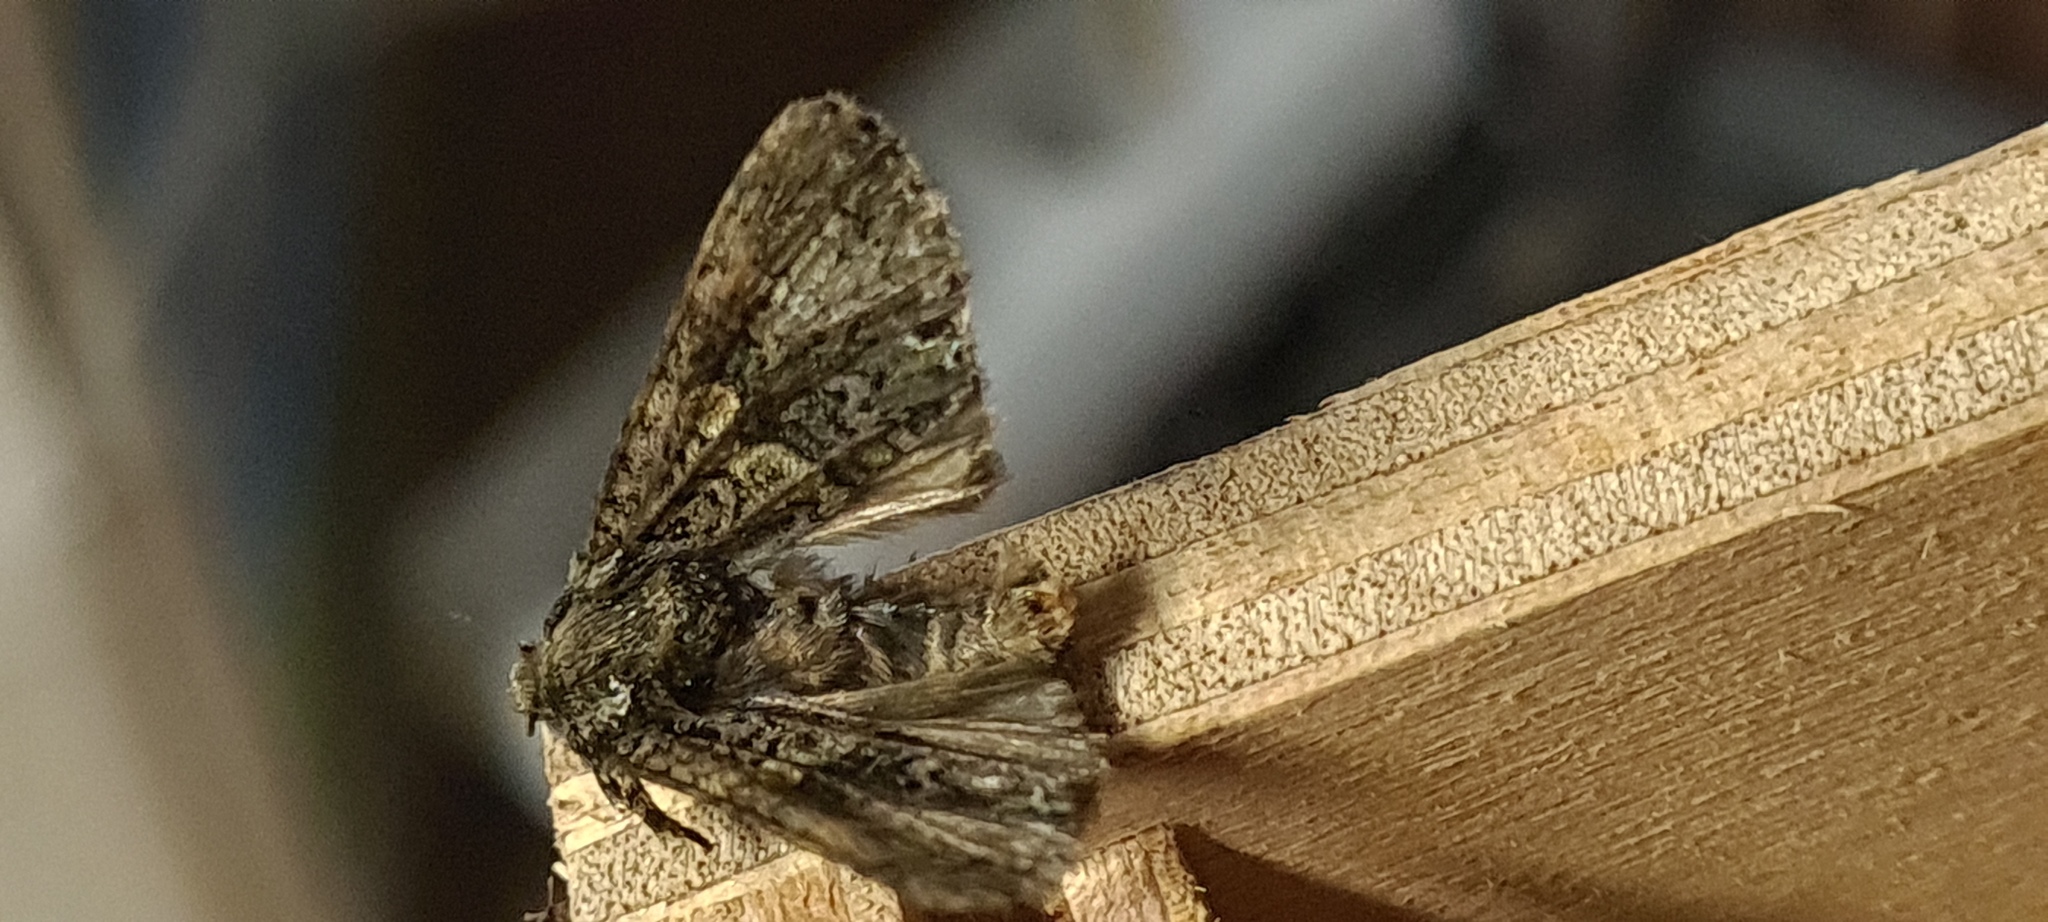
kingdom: Animalia
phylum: Arthropoda
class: Insecta
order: Lepidoptera
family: Noctuidae
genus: Craniophora
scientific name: Craniophora ligustri
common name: Coronet
